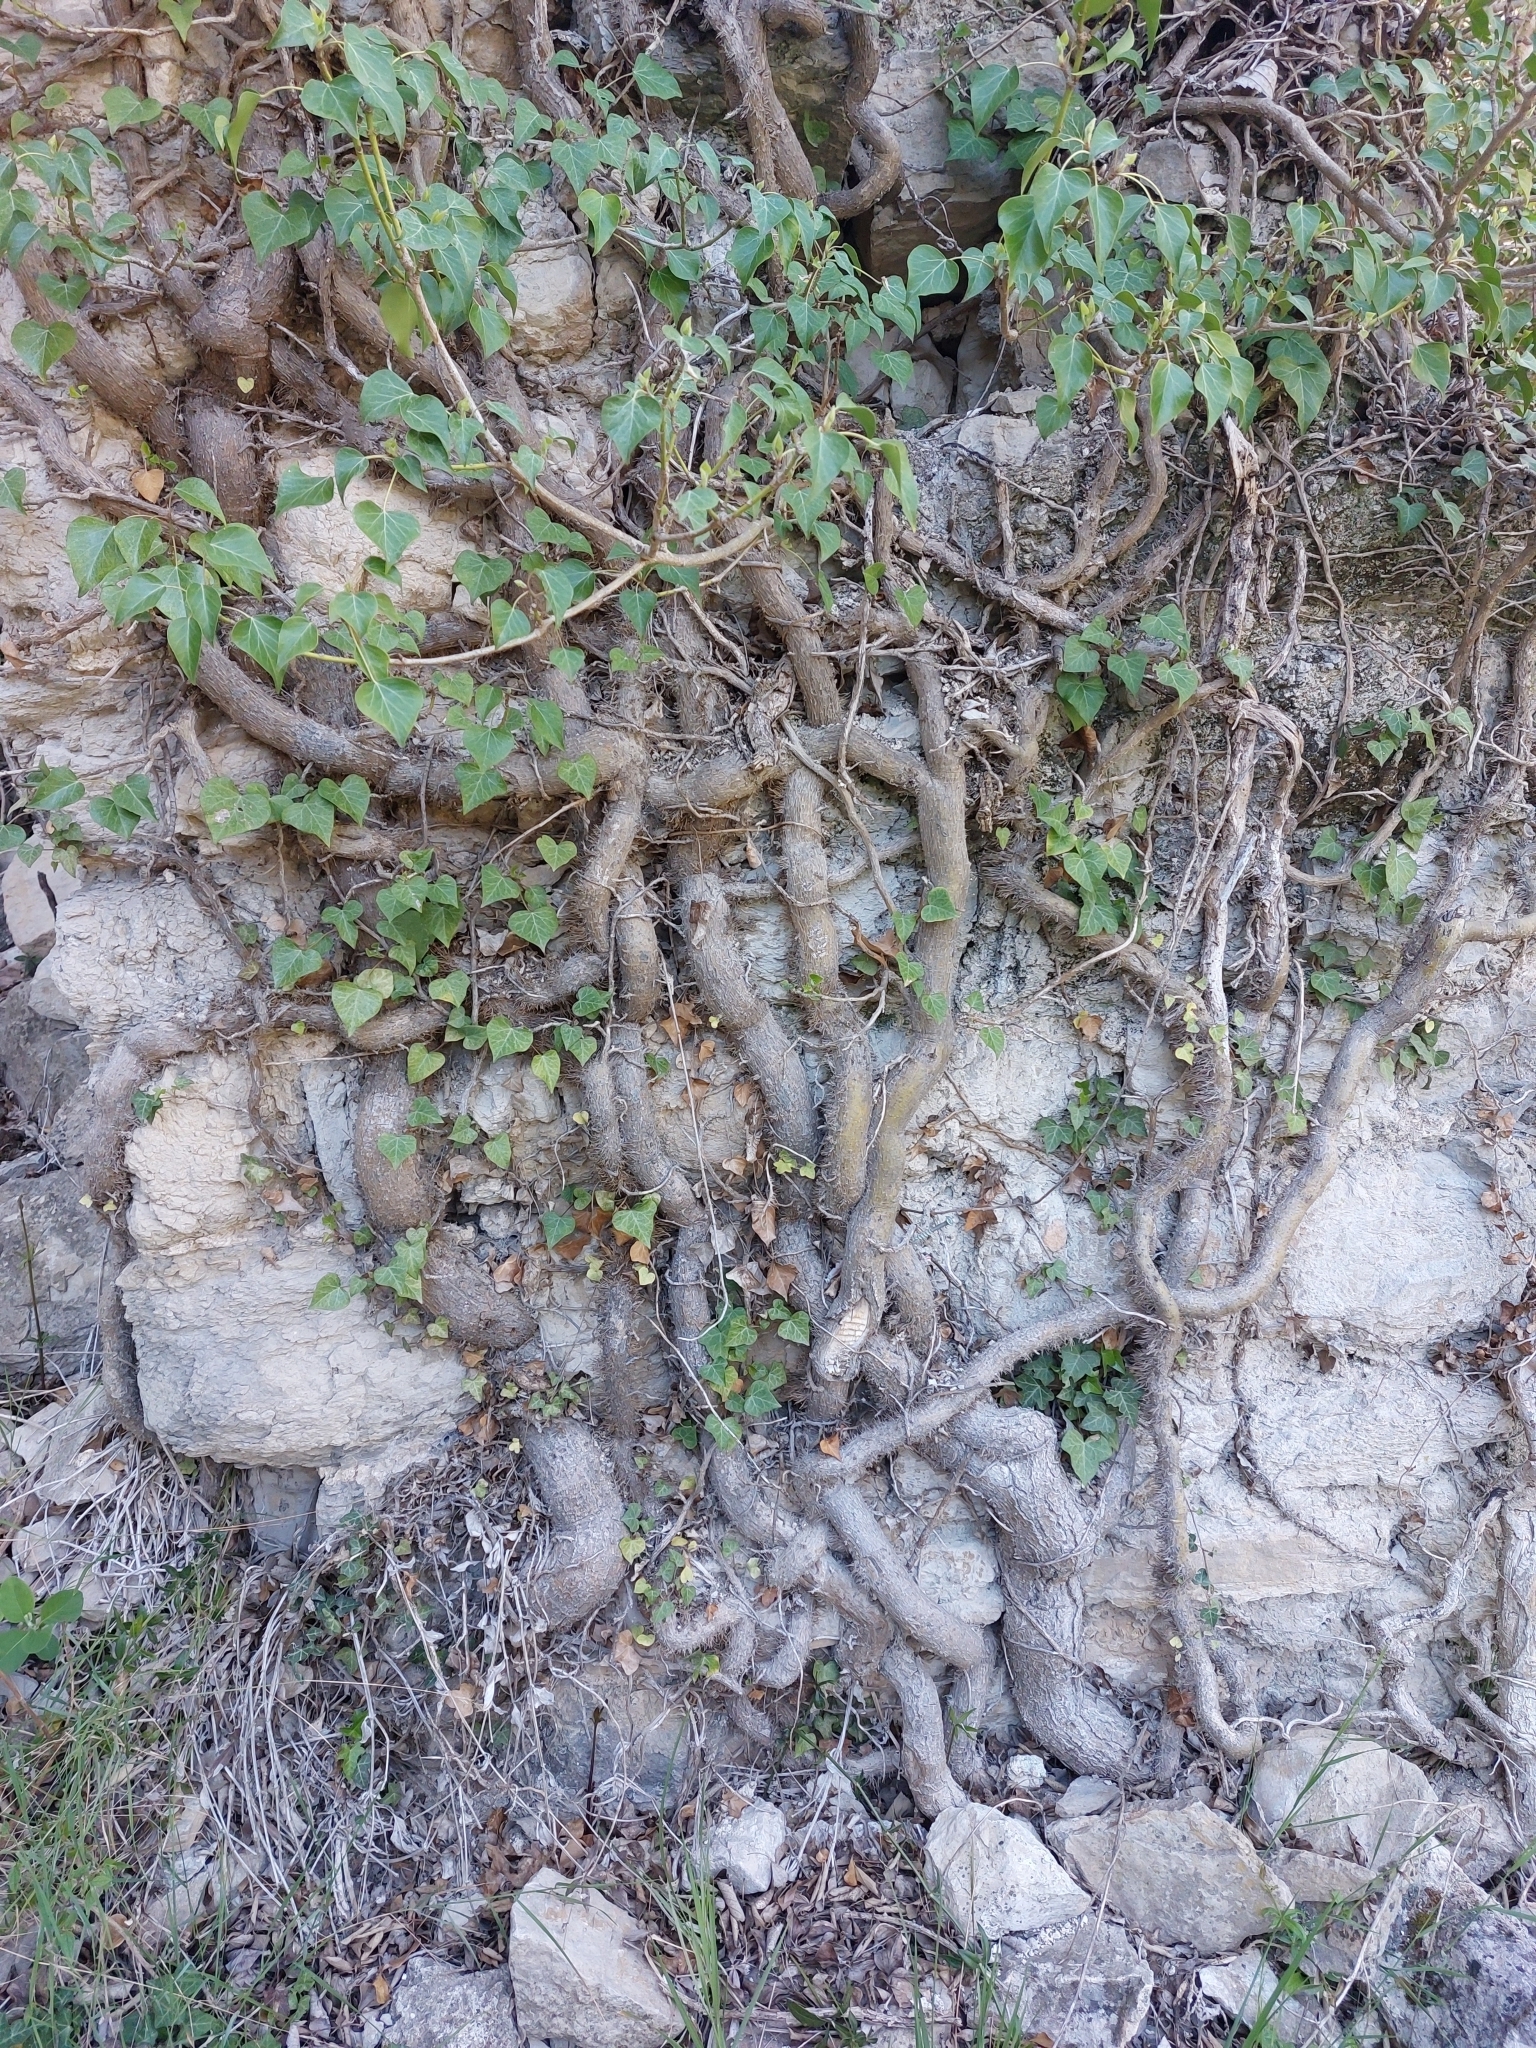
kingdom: Plantae
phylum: Tracheophyta
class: Magnoliopsida
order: Apiales
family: Araliaceae
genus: Hedera
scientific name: Hedera helix
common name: Ivy
